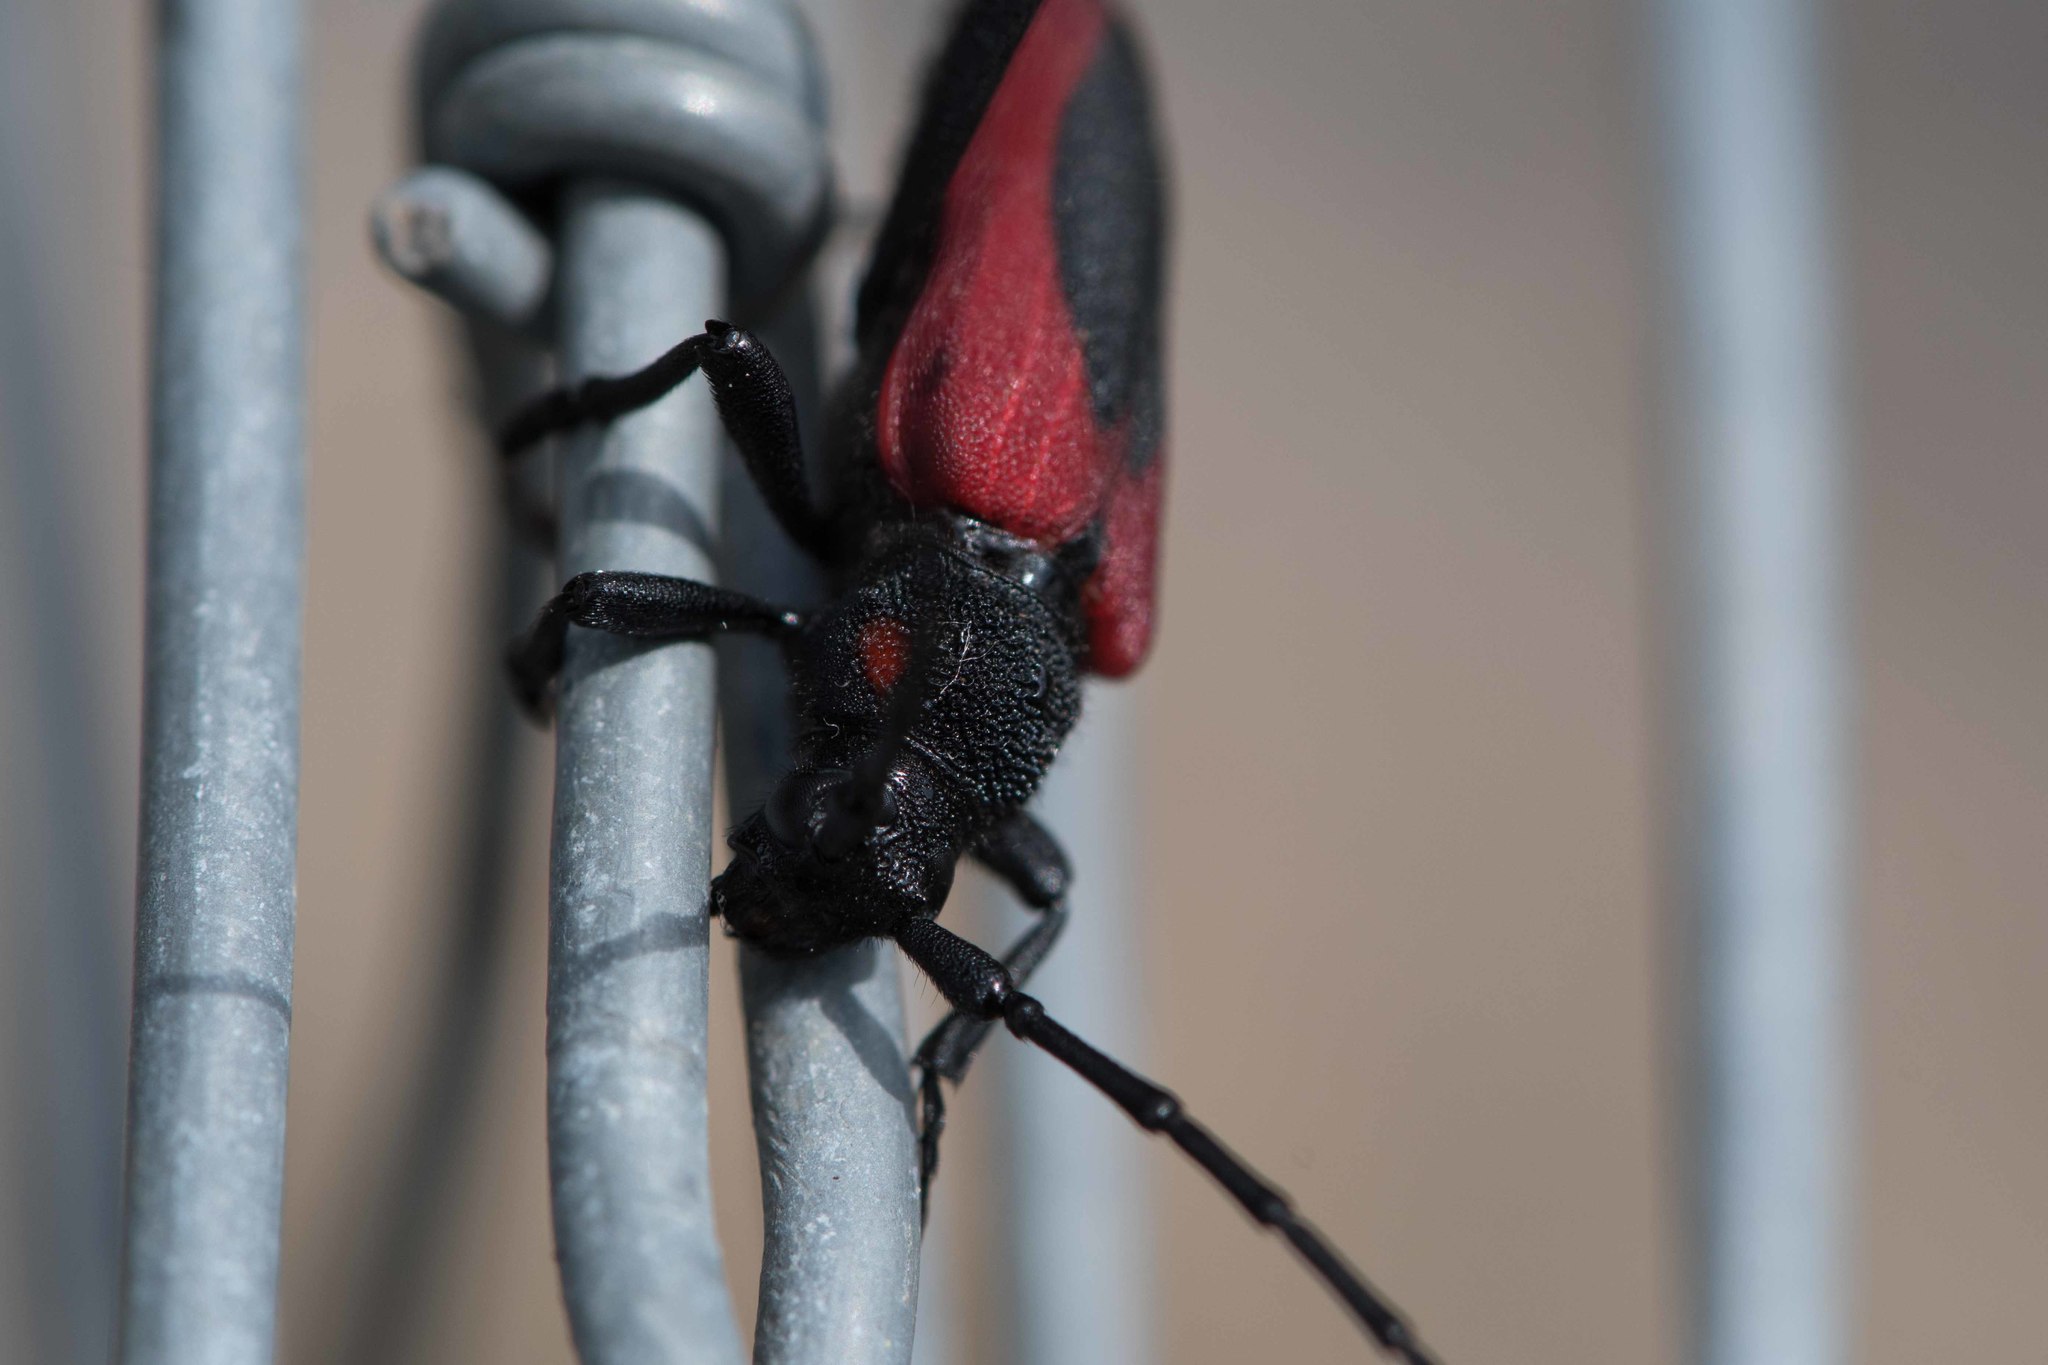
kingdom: Animalia
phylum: Arthropoda
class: Insecta
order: Coleoptera
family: Cerambycidae
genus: Purpuricenus
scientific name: Purpuricenus kaehleri
